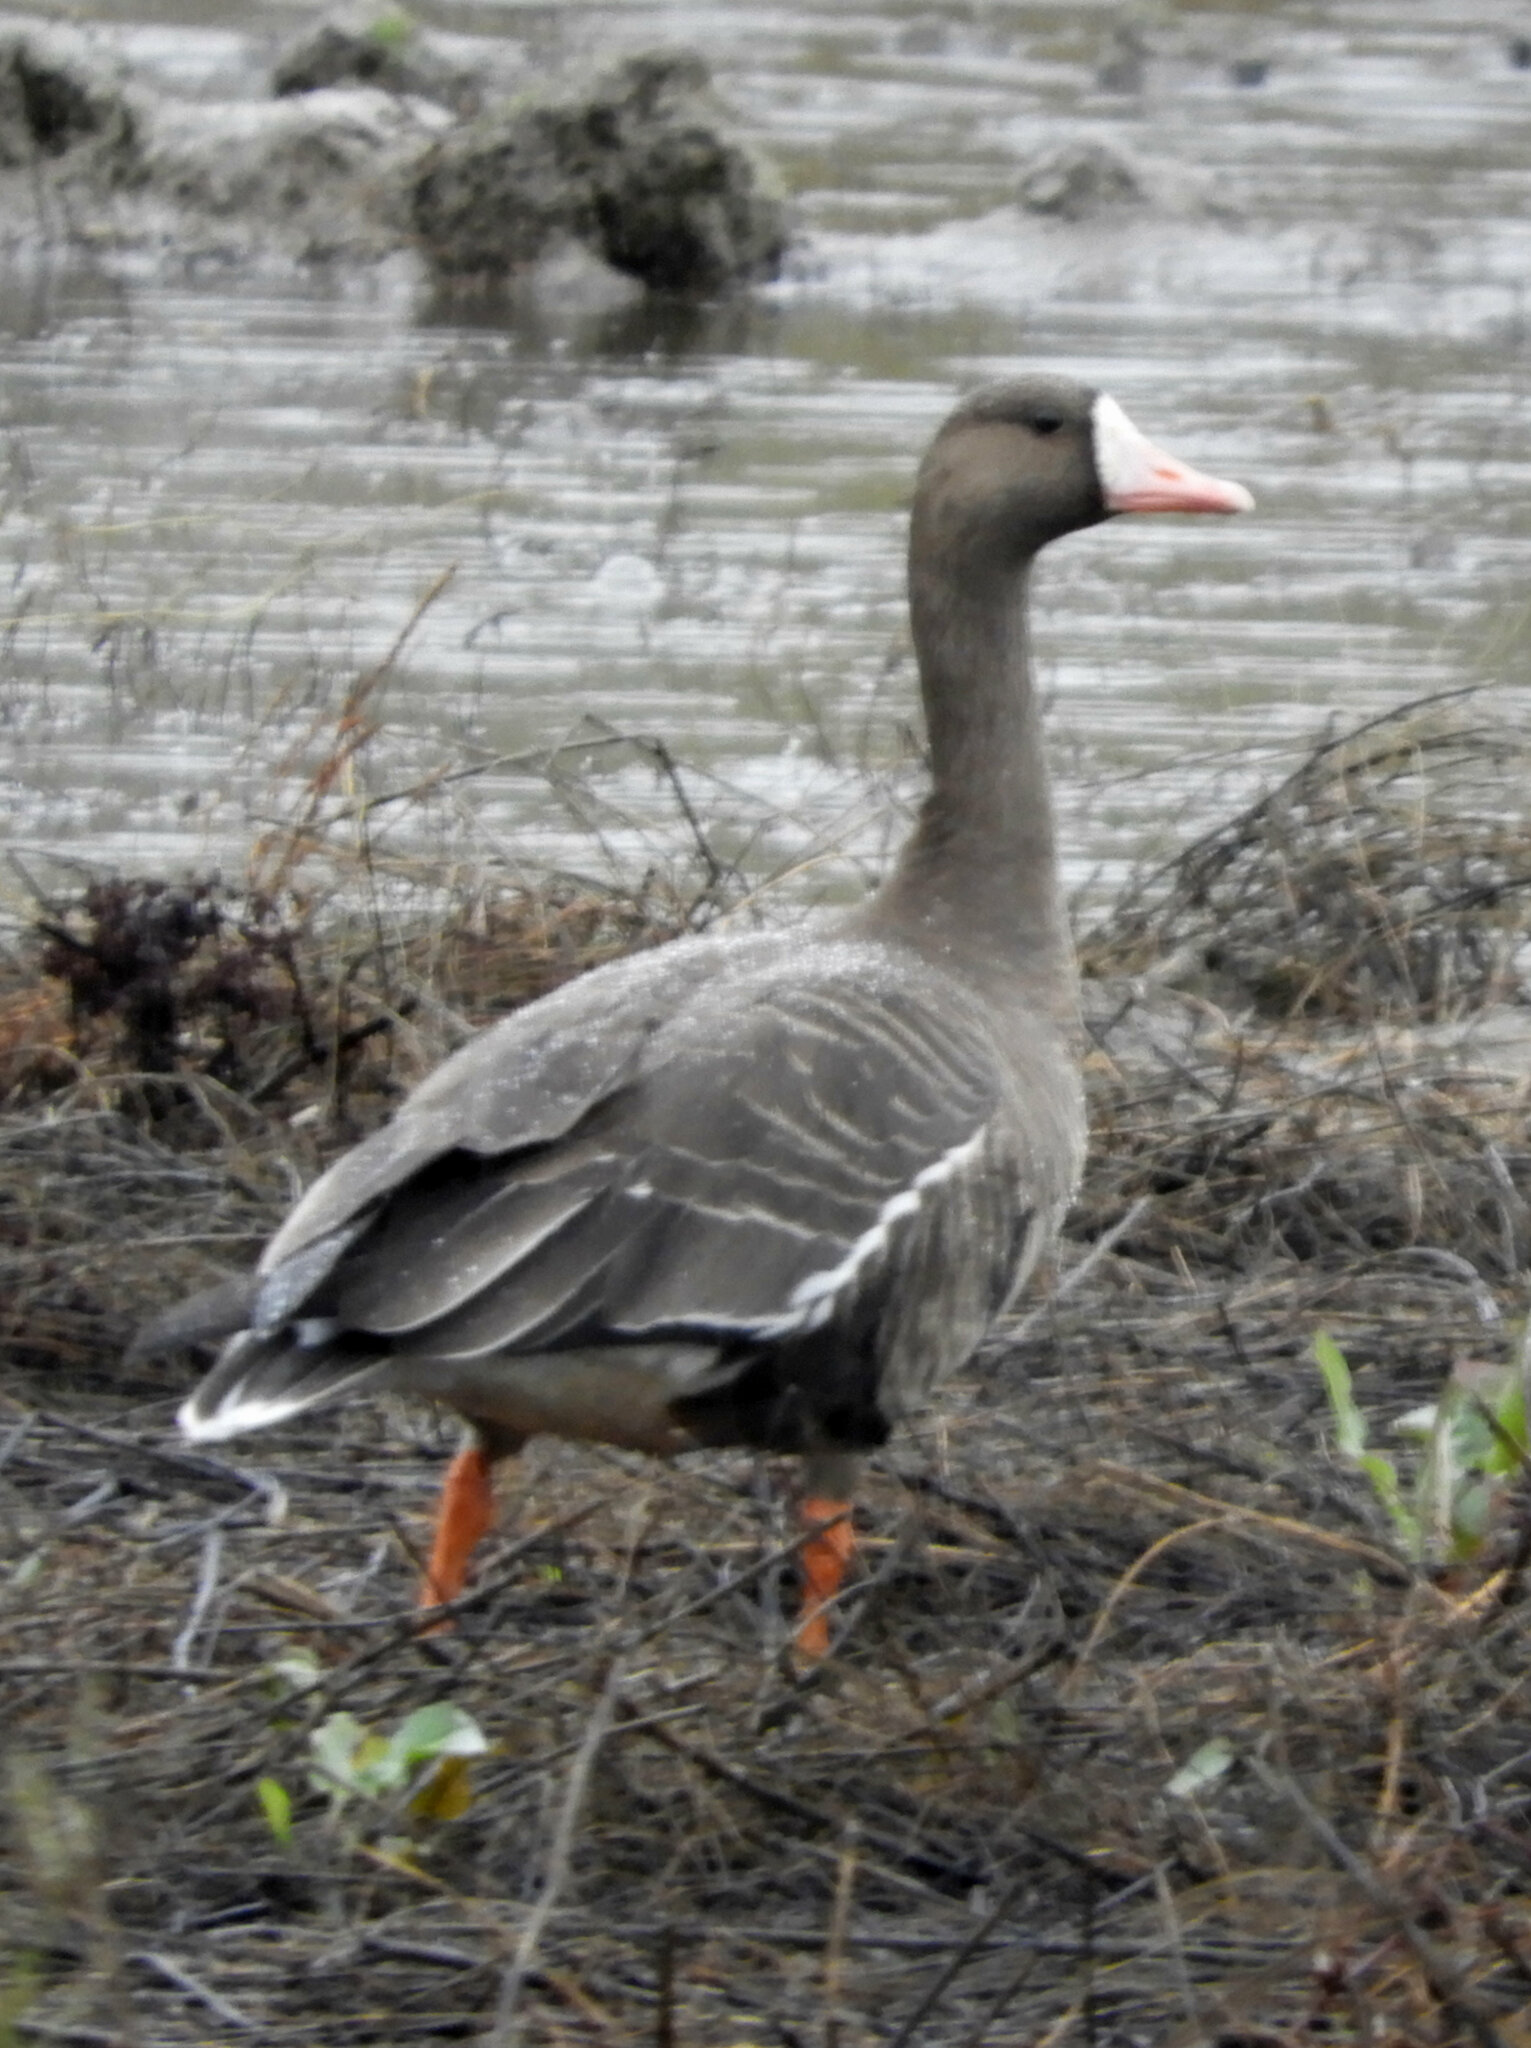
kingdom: Animalia
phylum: Chordata
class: Aves
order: Anseriformes
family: Anatidae
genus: Anser
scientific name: Anser albifrons
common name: Greater white-fronted goose
